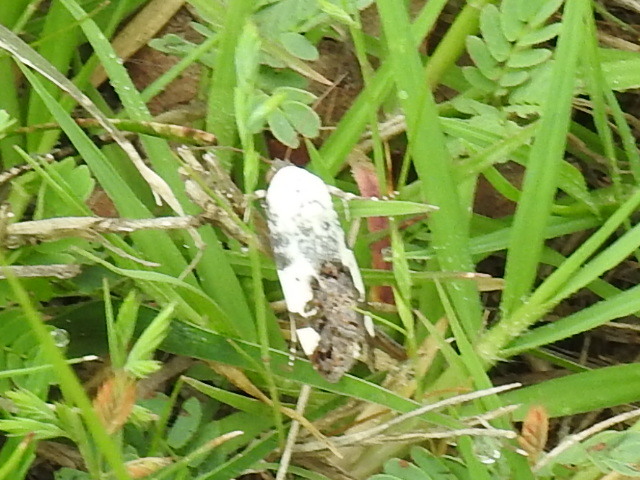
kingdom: Animalia
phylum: Arthropoda
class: Insecta
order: Lepidoptera
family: Noctuidae
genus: Acontia
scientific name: Acontia aprica
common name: Nun
